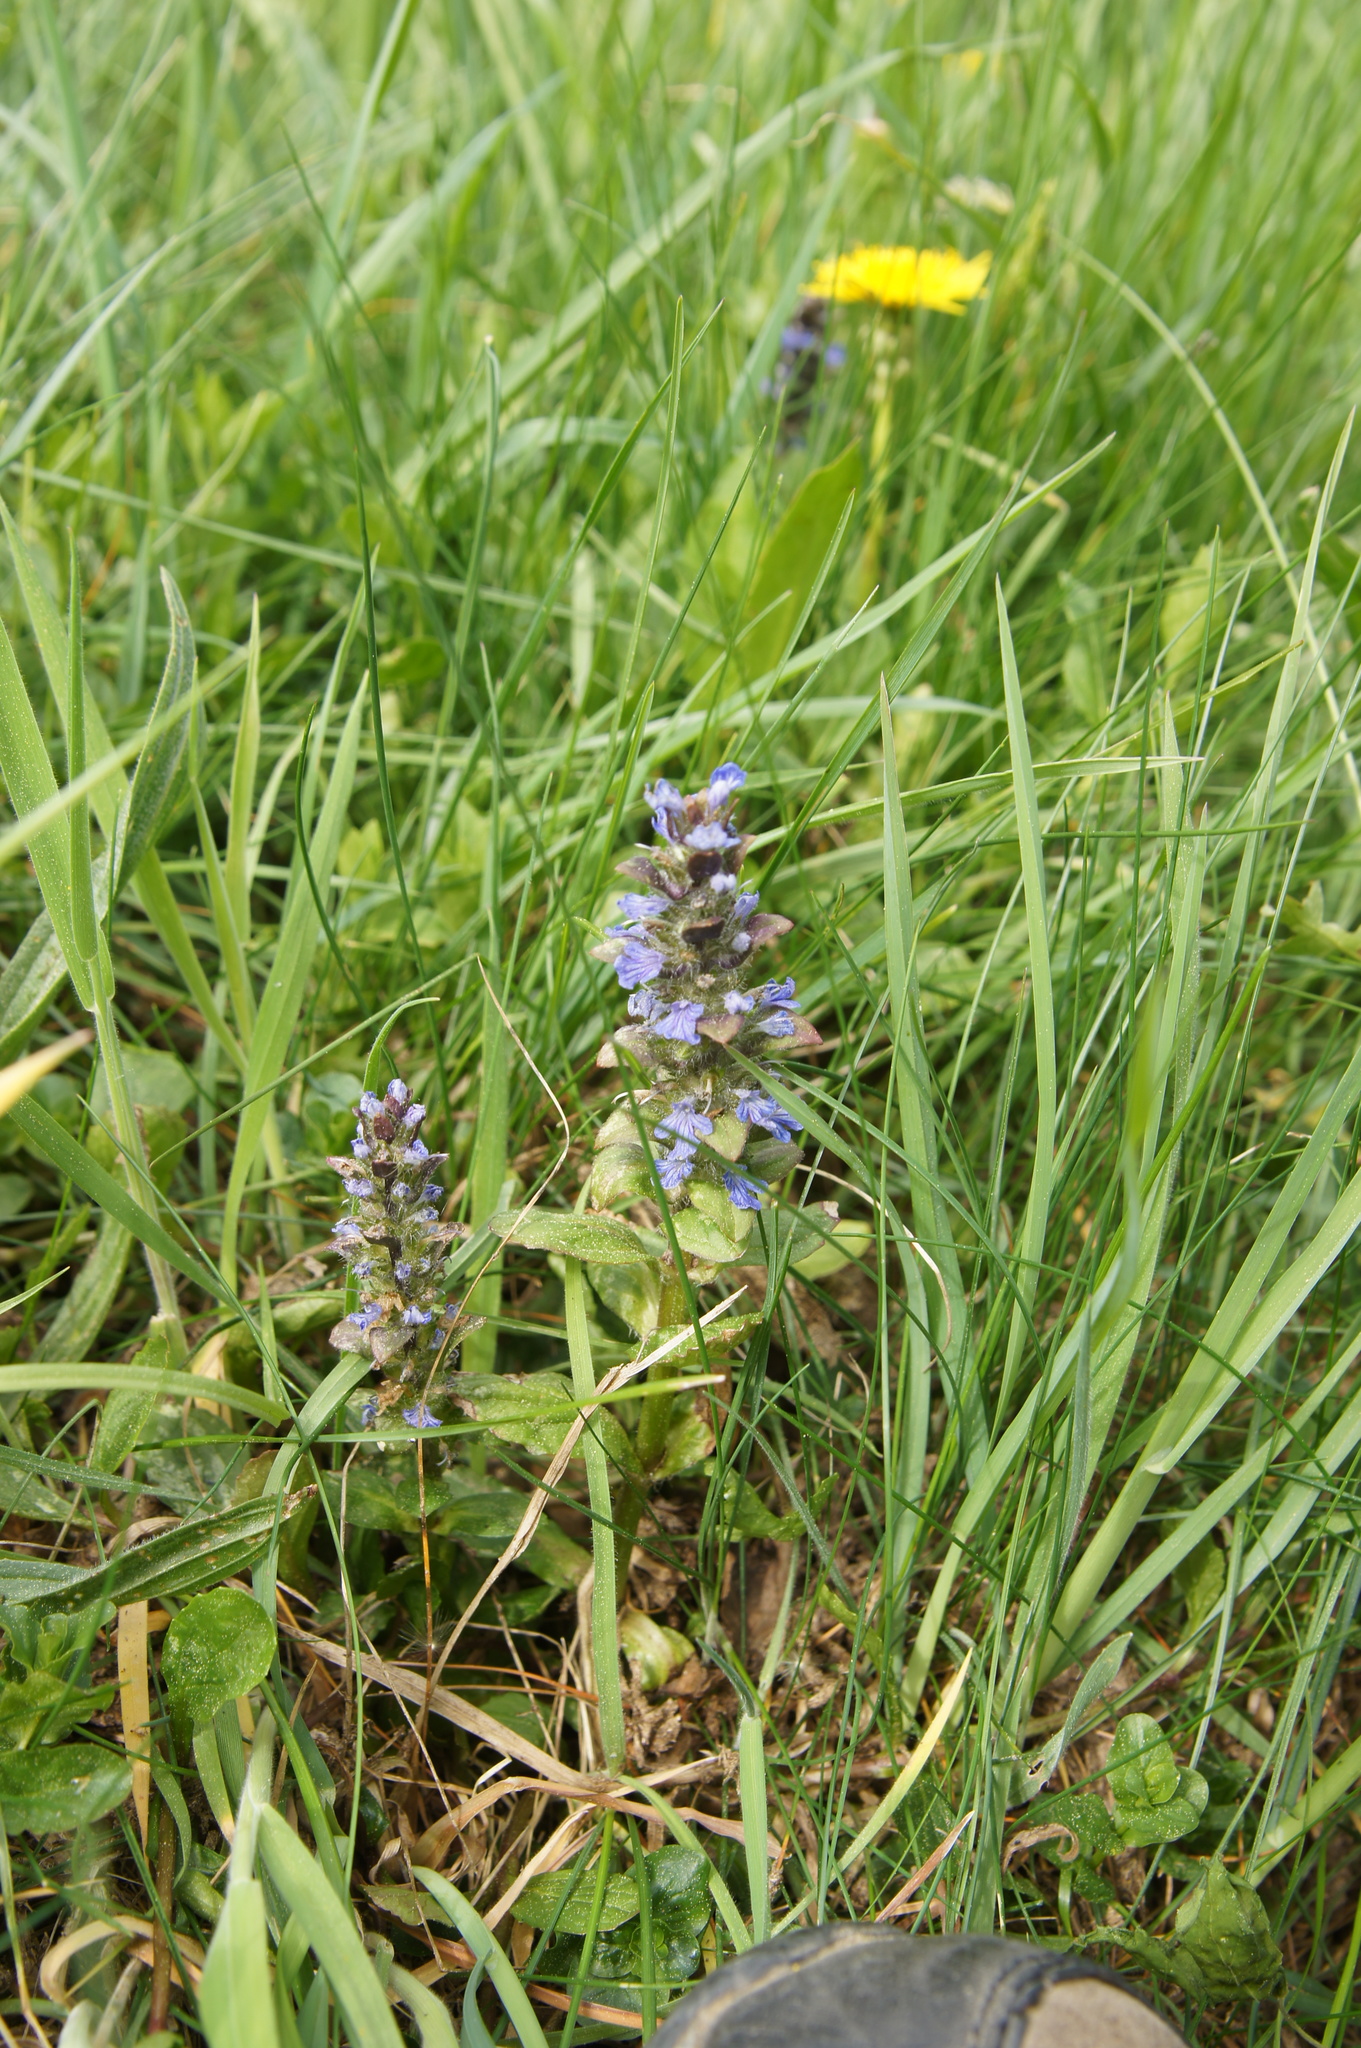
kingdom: Plantae
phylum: Tracheophyta
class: Magnoliopsida
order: Lamiales
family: Lamiaceae
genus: Ajuga
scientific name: Ajuga reptans
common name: Bugle
